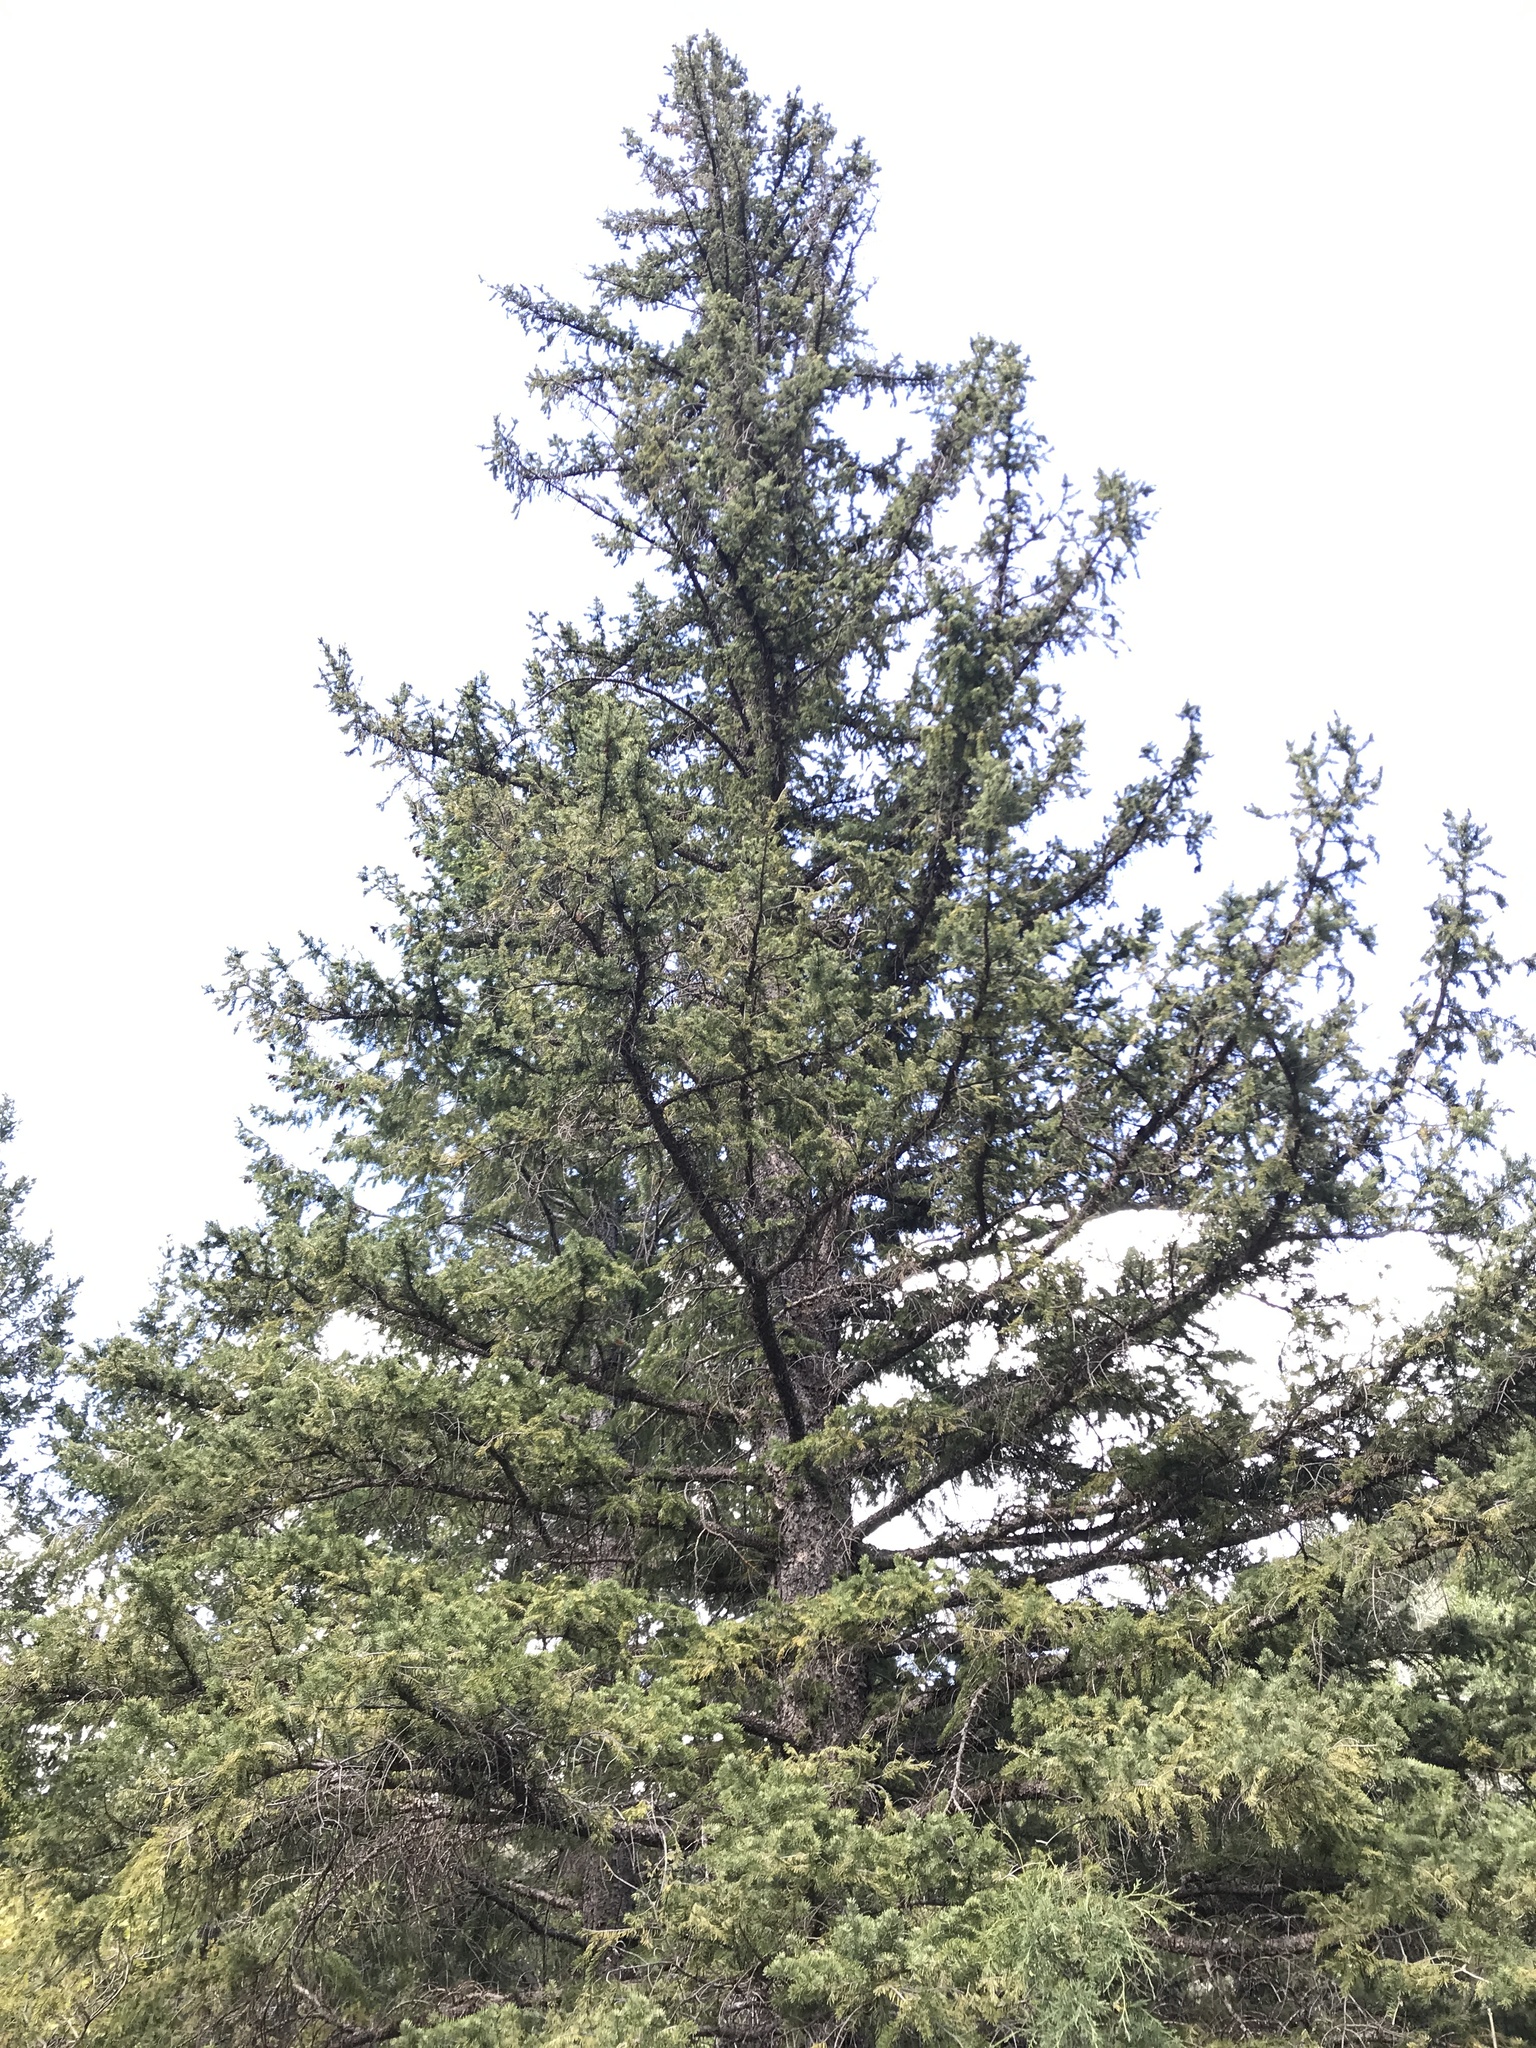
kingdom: Plantae
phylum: Tracheophyta
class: Pinopsida
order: Pinales
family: Pinaceae
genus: Picea
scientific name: Picea engelmannii
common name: Engelmann spruce
